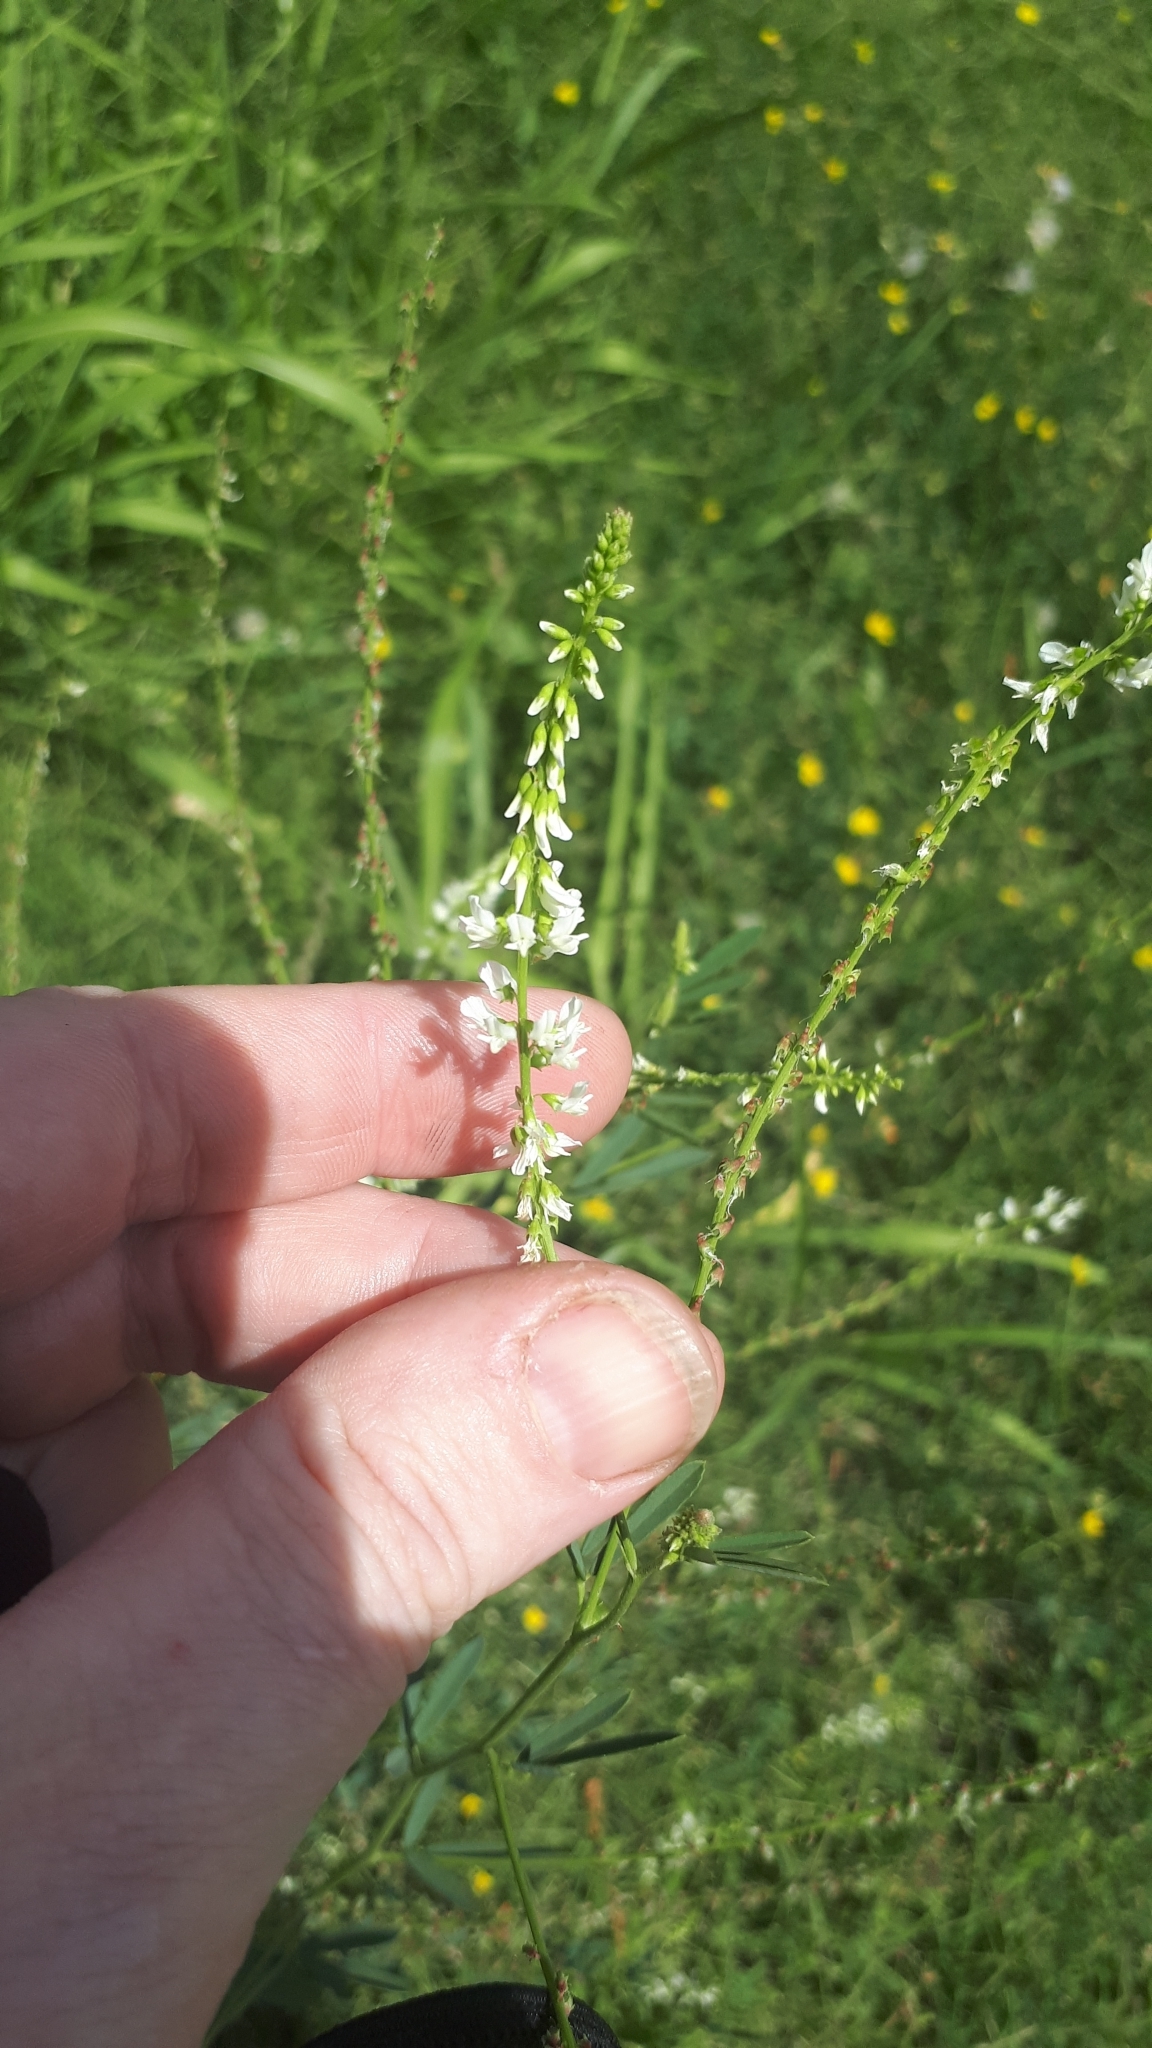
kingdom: Plantae
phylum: Tracheophyta
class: Magnoliopsida
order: Fabales
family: Fabaceae
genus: Melilotus
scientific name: Melilotus albus
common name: White melilot
